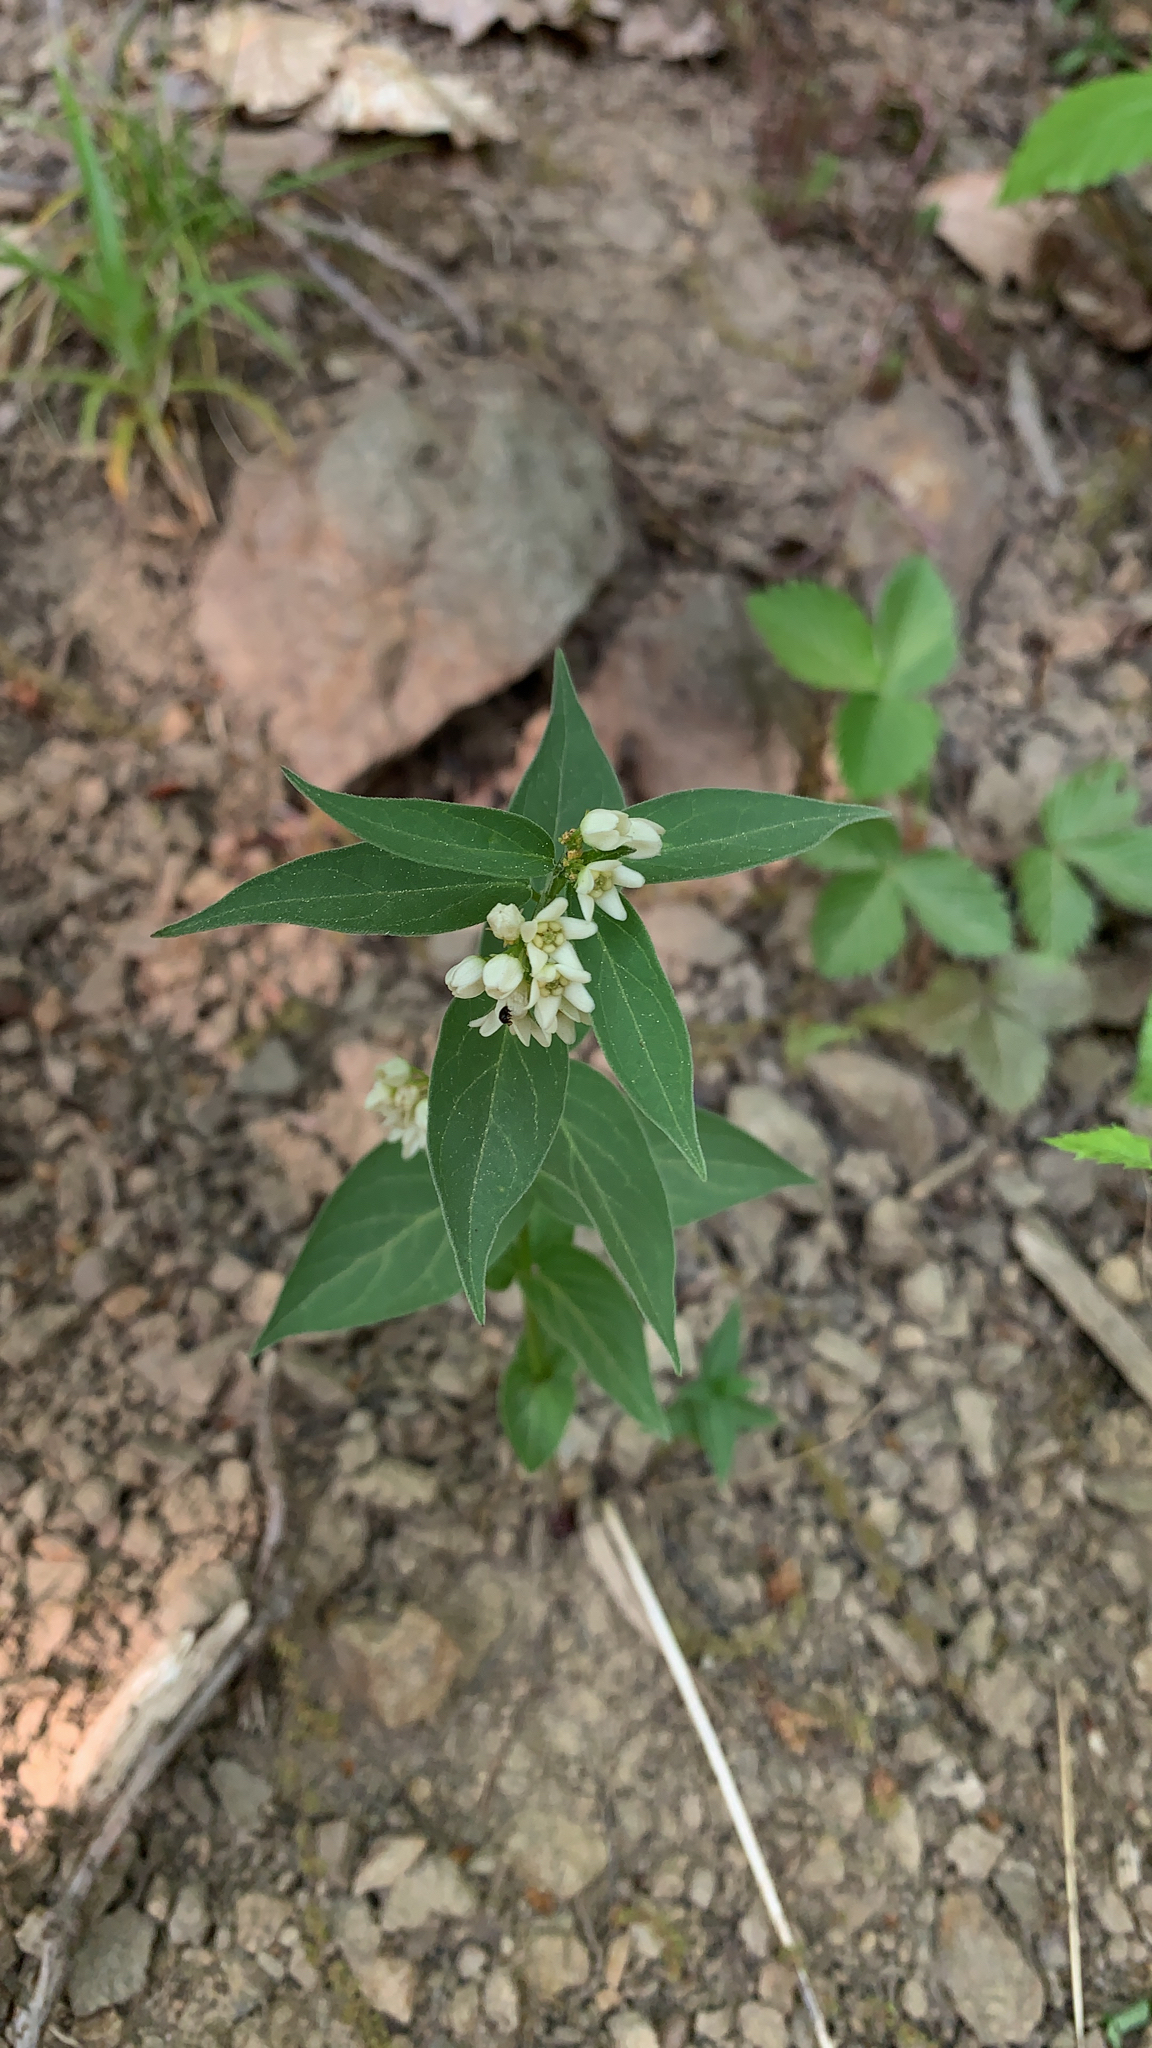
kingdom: Plantae
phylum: Tracheophyta
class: Magnoliopsida
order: Gentianales
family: Apocynaceae
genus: Vincetoxicum
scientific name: Vincetoxicum hirundinaria
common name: White swallowwort
